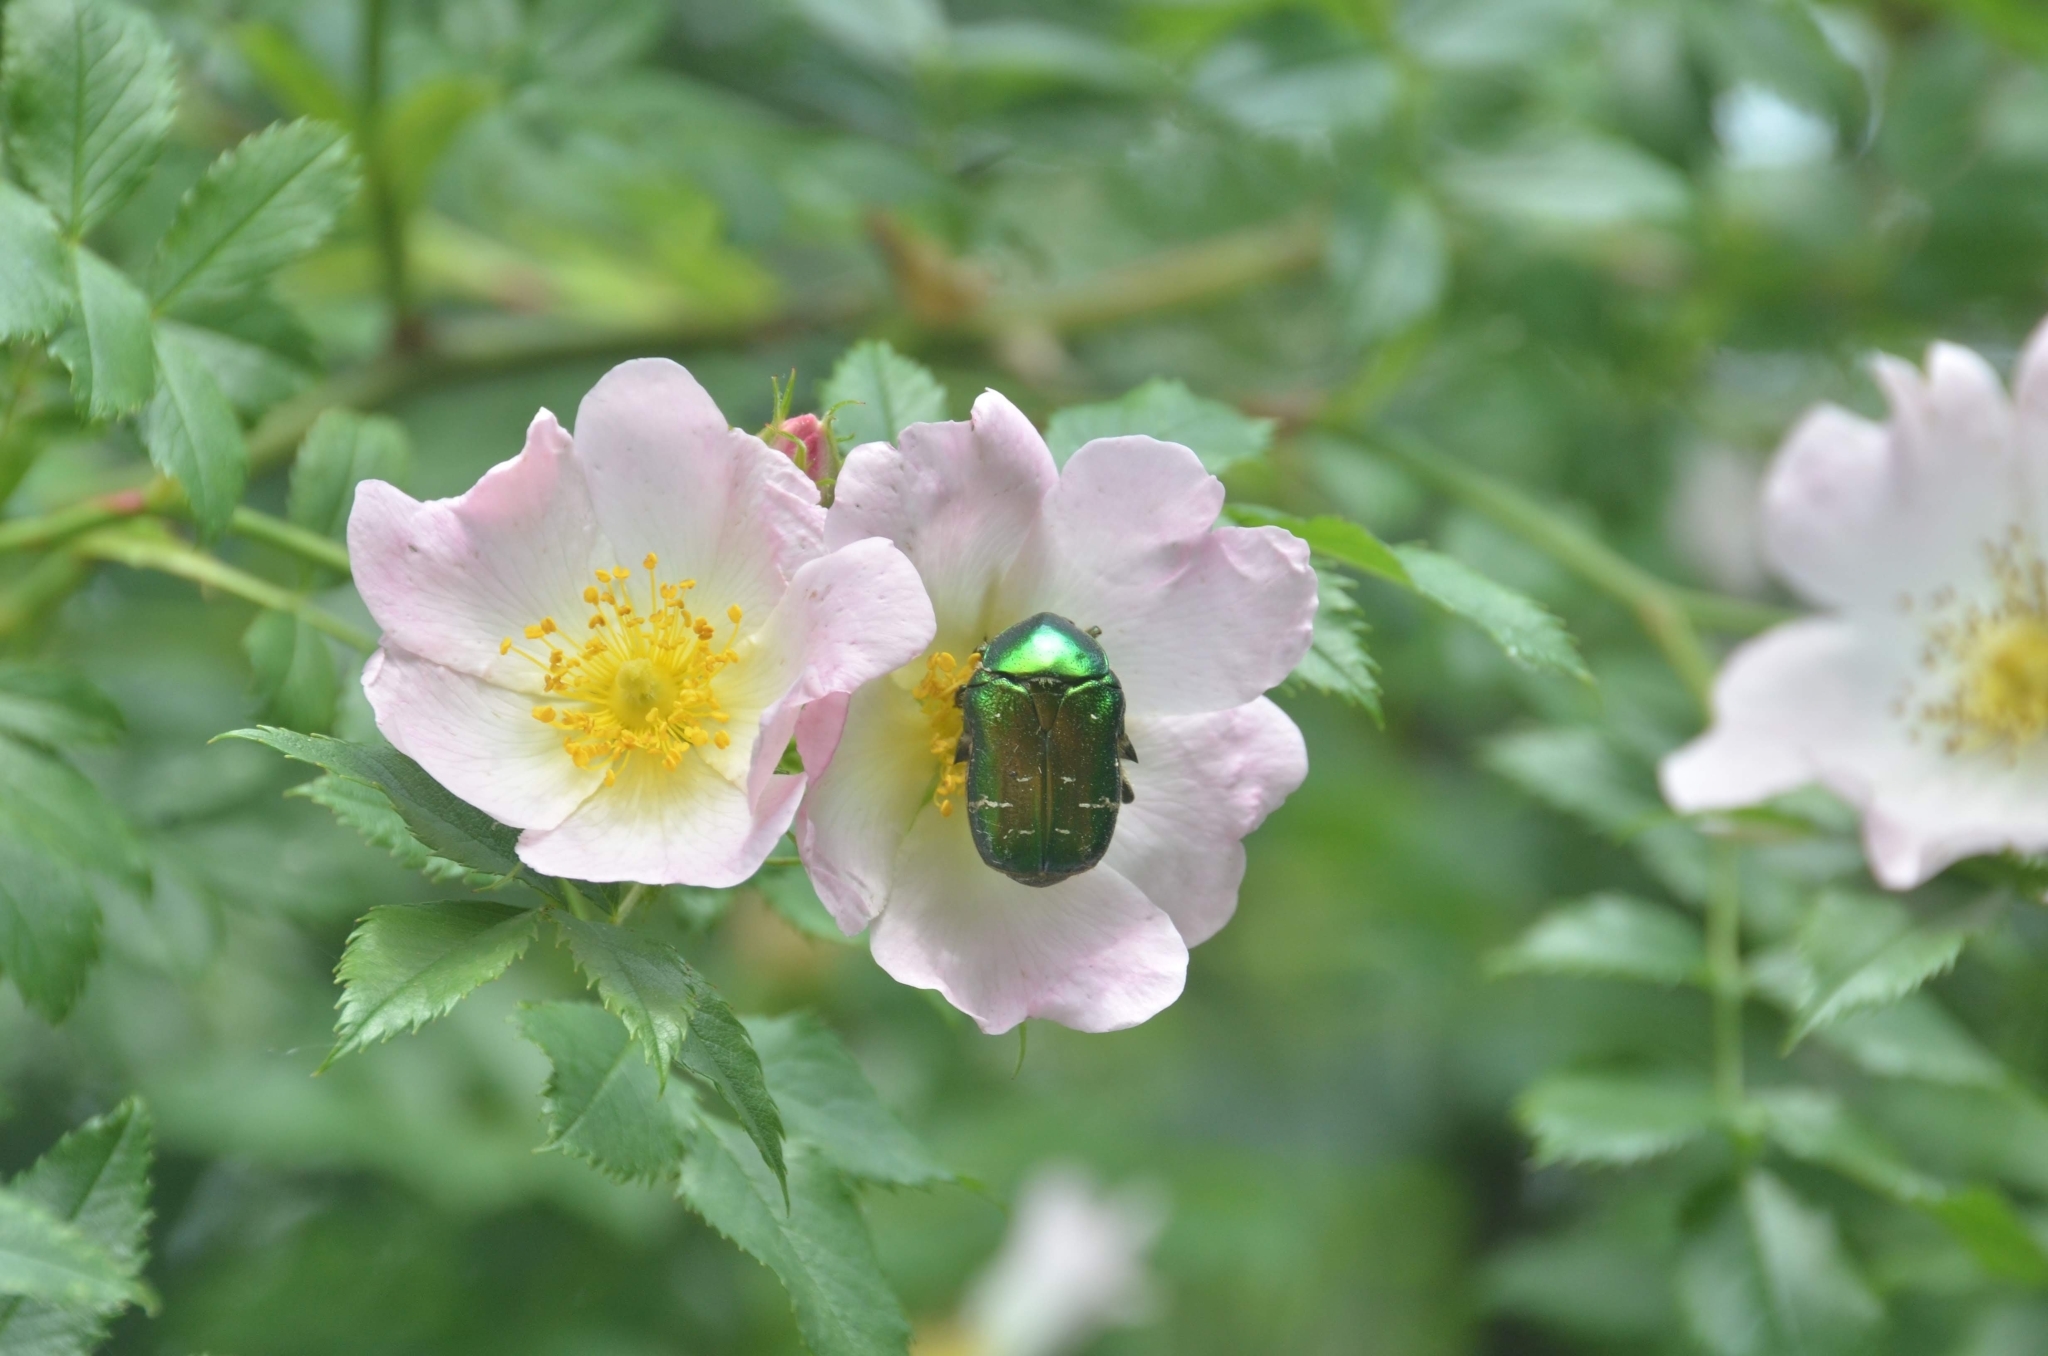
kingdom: Animalia
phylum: Arthropoda
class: Insecta
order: Coleoptera
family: Scarabaeidae
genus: Cetonia
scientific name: Cetonia aurata
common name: Rose chafer
